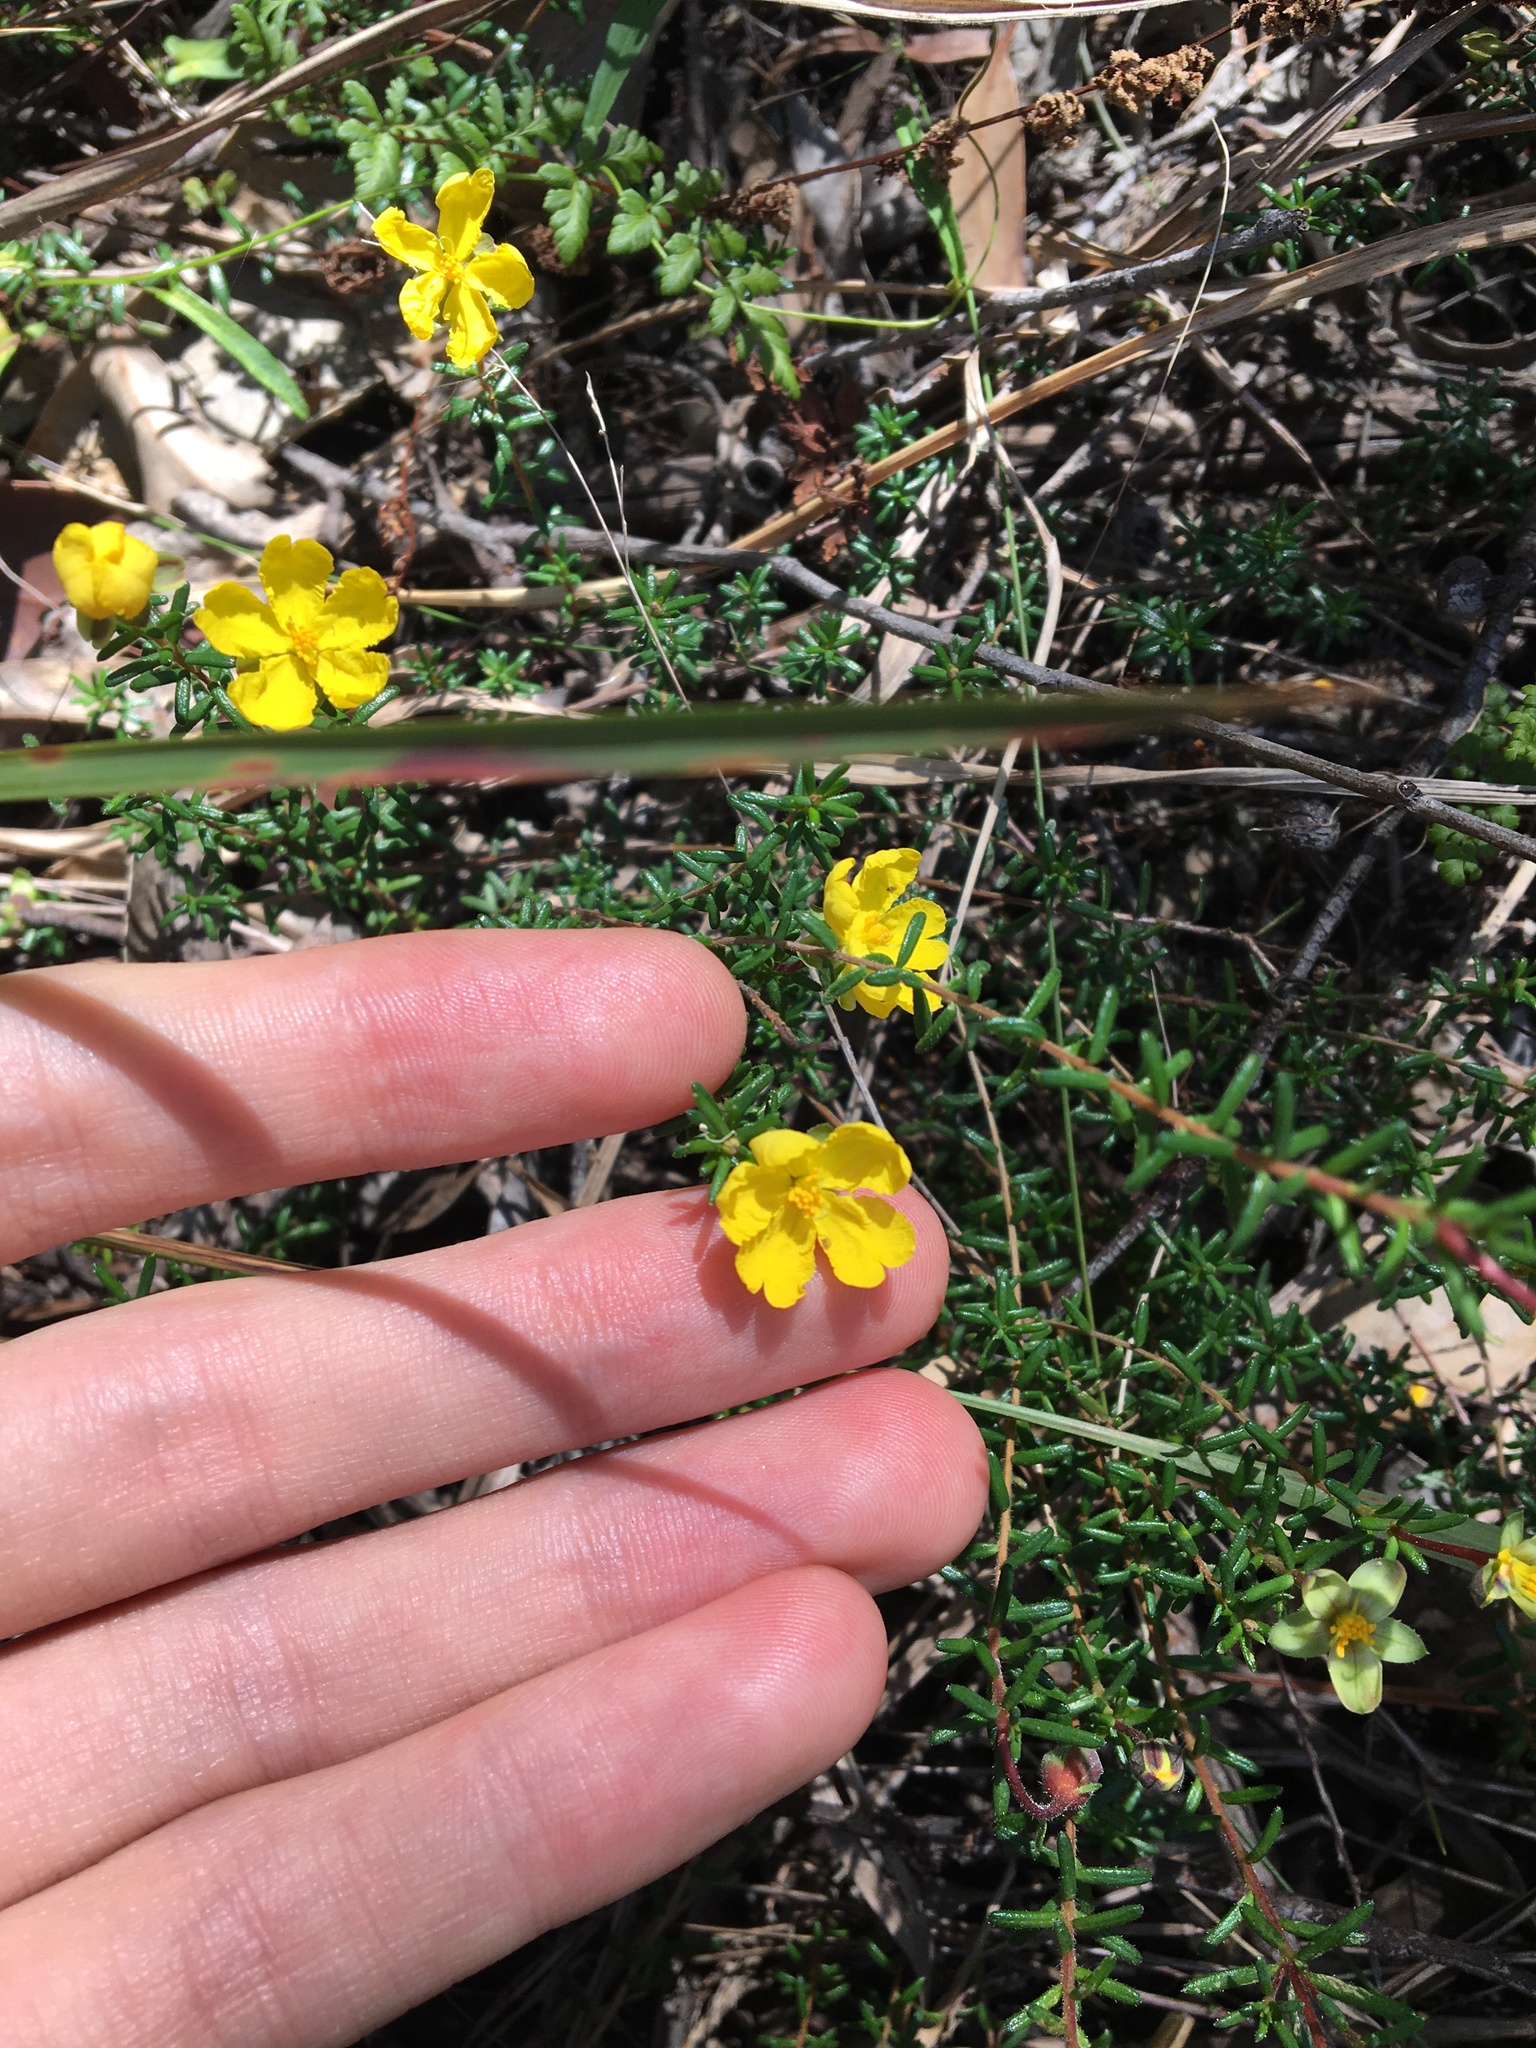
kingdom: Plantae
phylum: Tracheophyta
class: Magnoliopsida
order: Dilleniales
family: Dilleniaceae
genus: Hibbertia
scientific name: Hibbertia pedunculata
